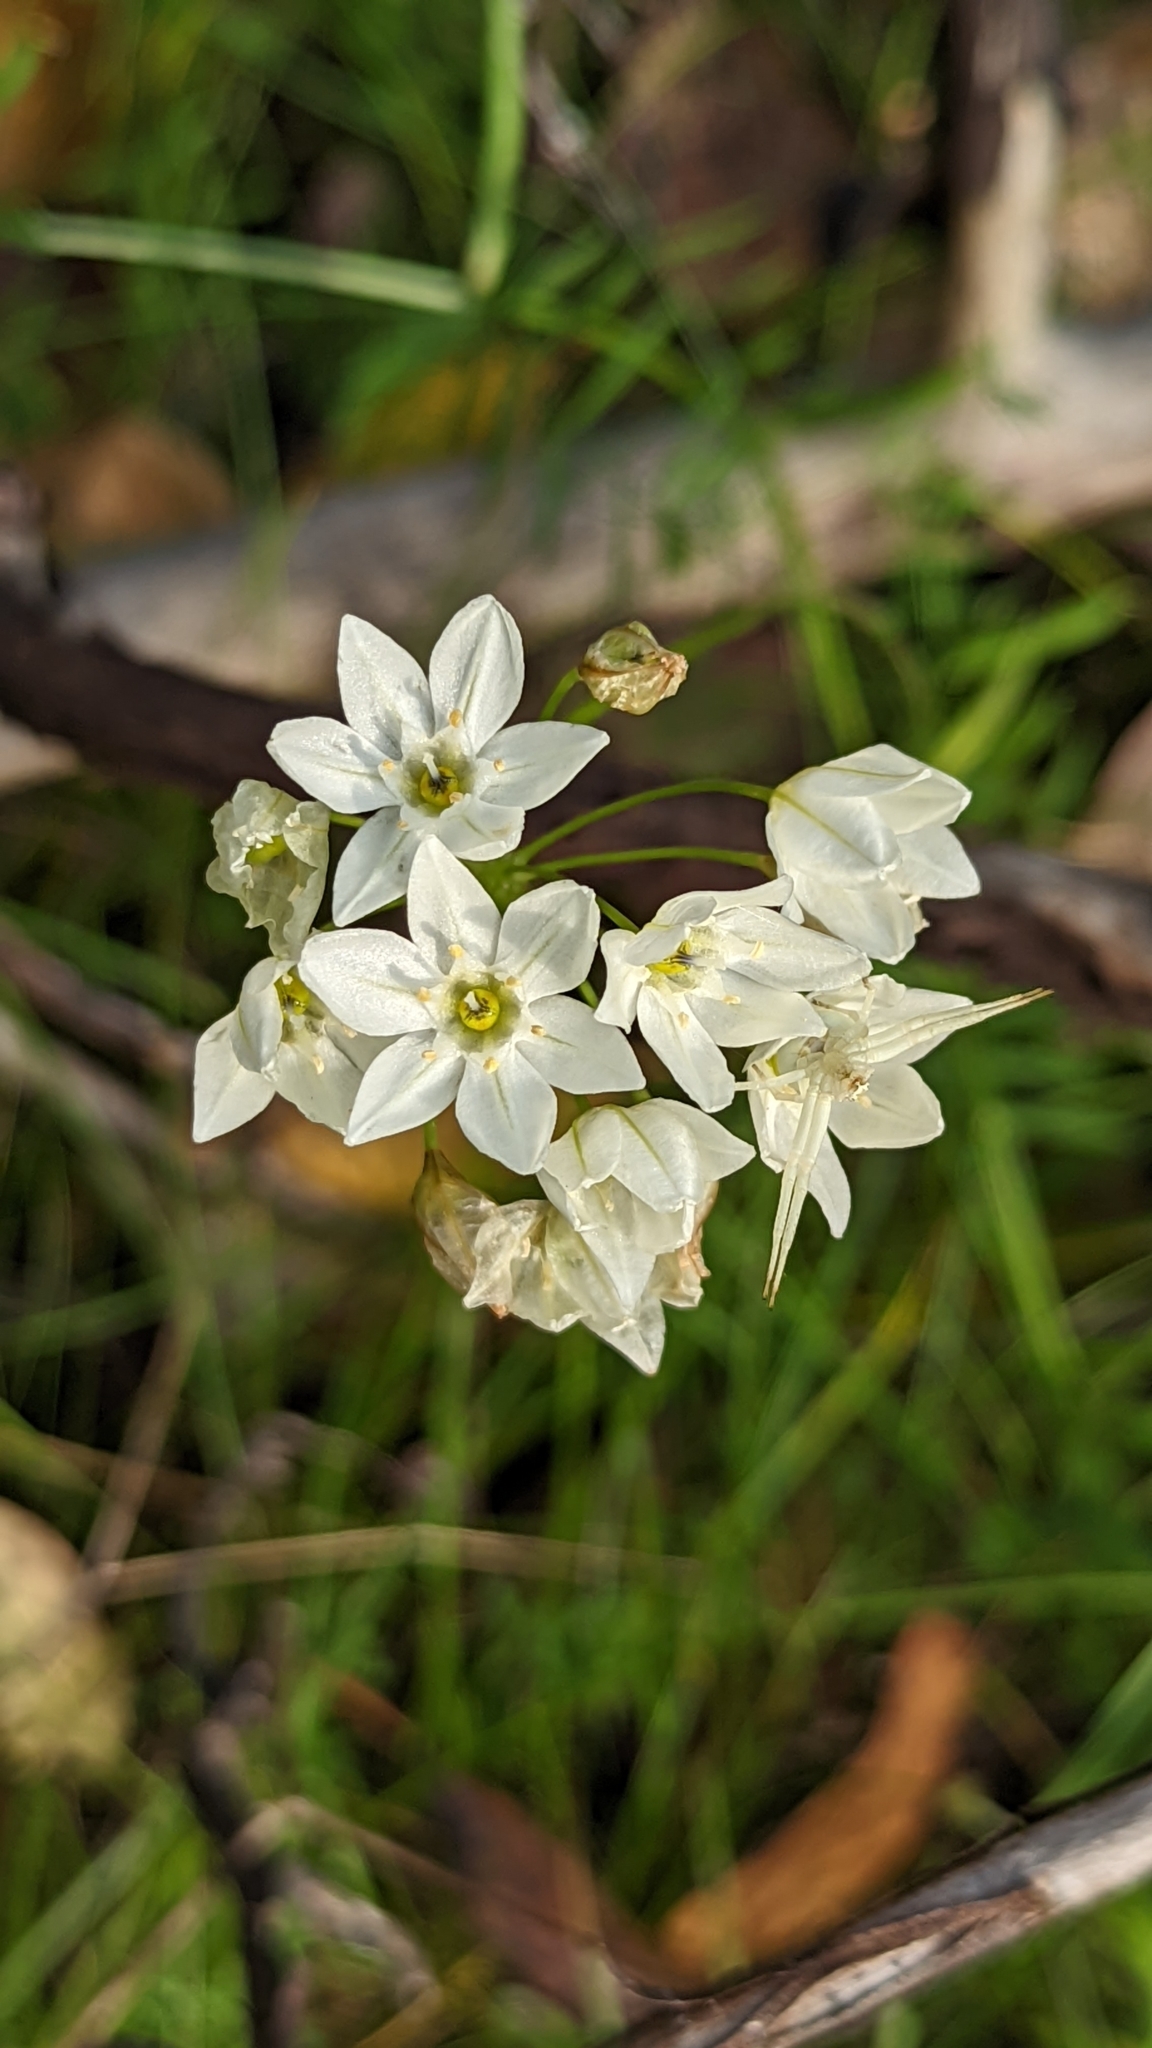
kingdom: Plantae
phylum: Tracheophyta
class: Liliopsida
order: Asparagales
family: Asparagaceae
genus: Triteleia
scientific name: Triteleia hyacinthina
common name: White brodiaea
